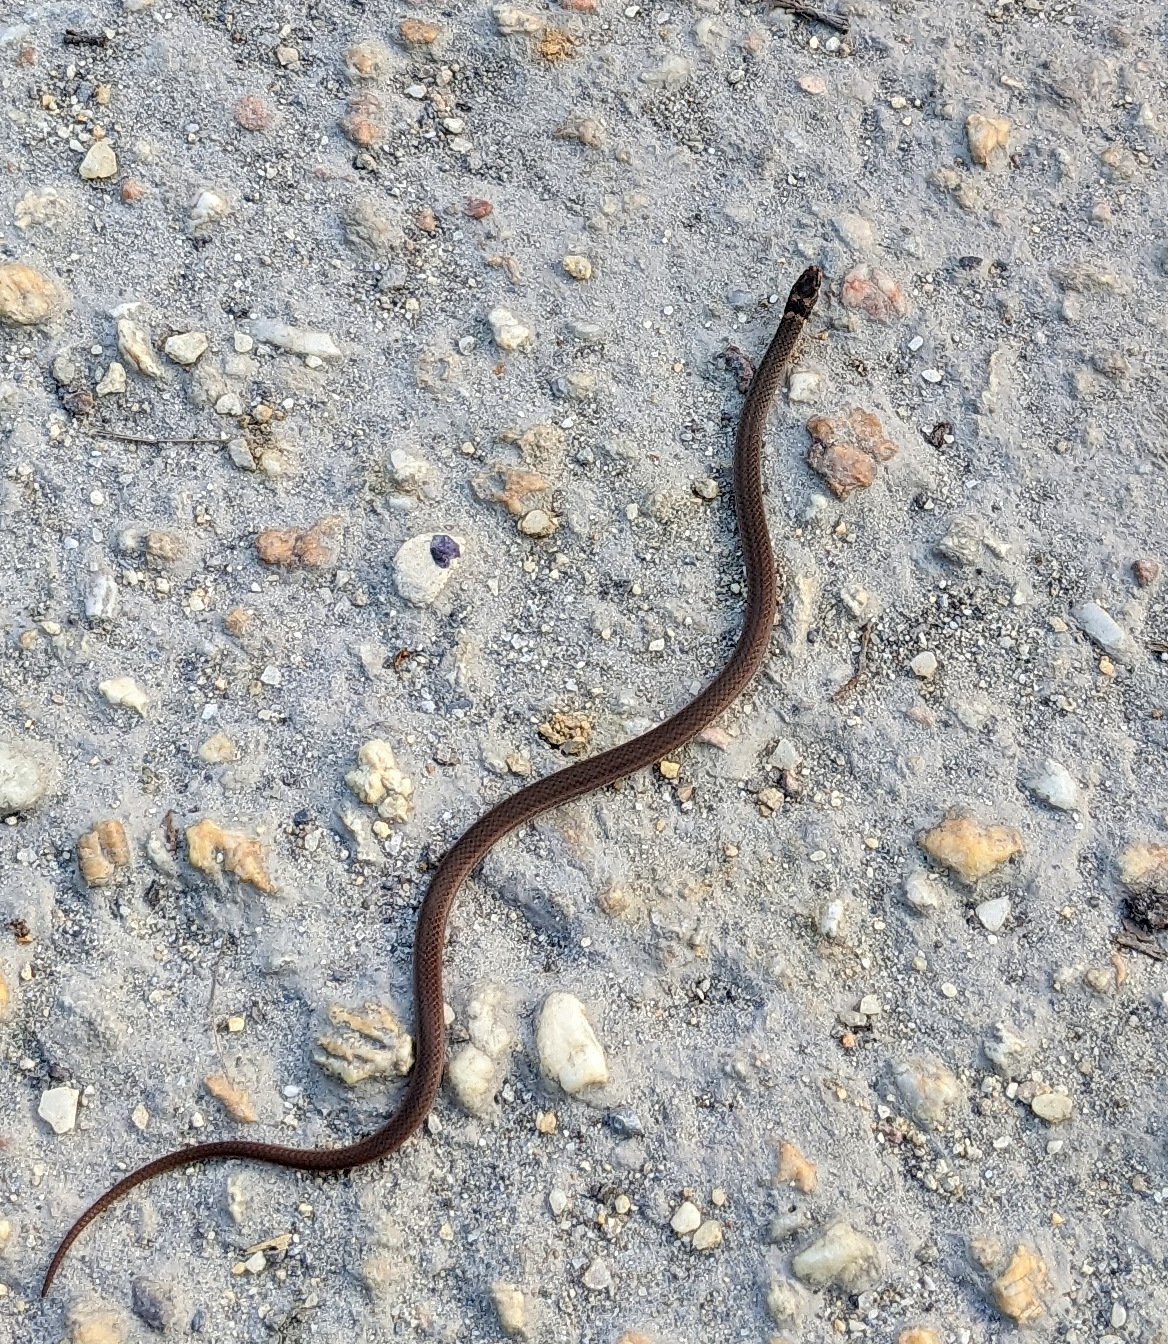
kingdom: Animalia
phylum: Chordata
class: Squamata
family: Colubridae
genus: Tantilla
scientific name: Tantilla melanocephala
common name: Black-headed snake
